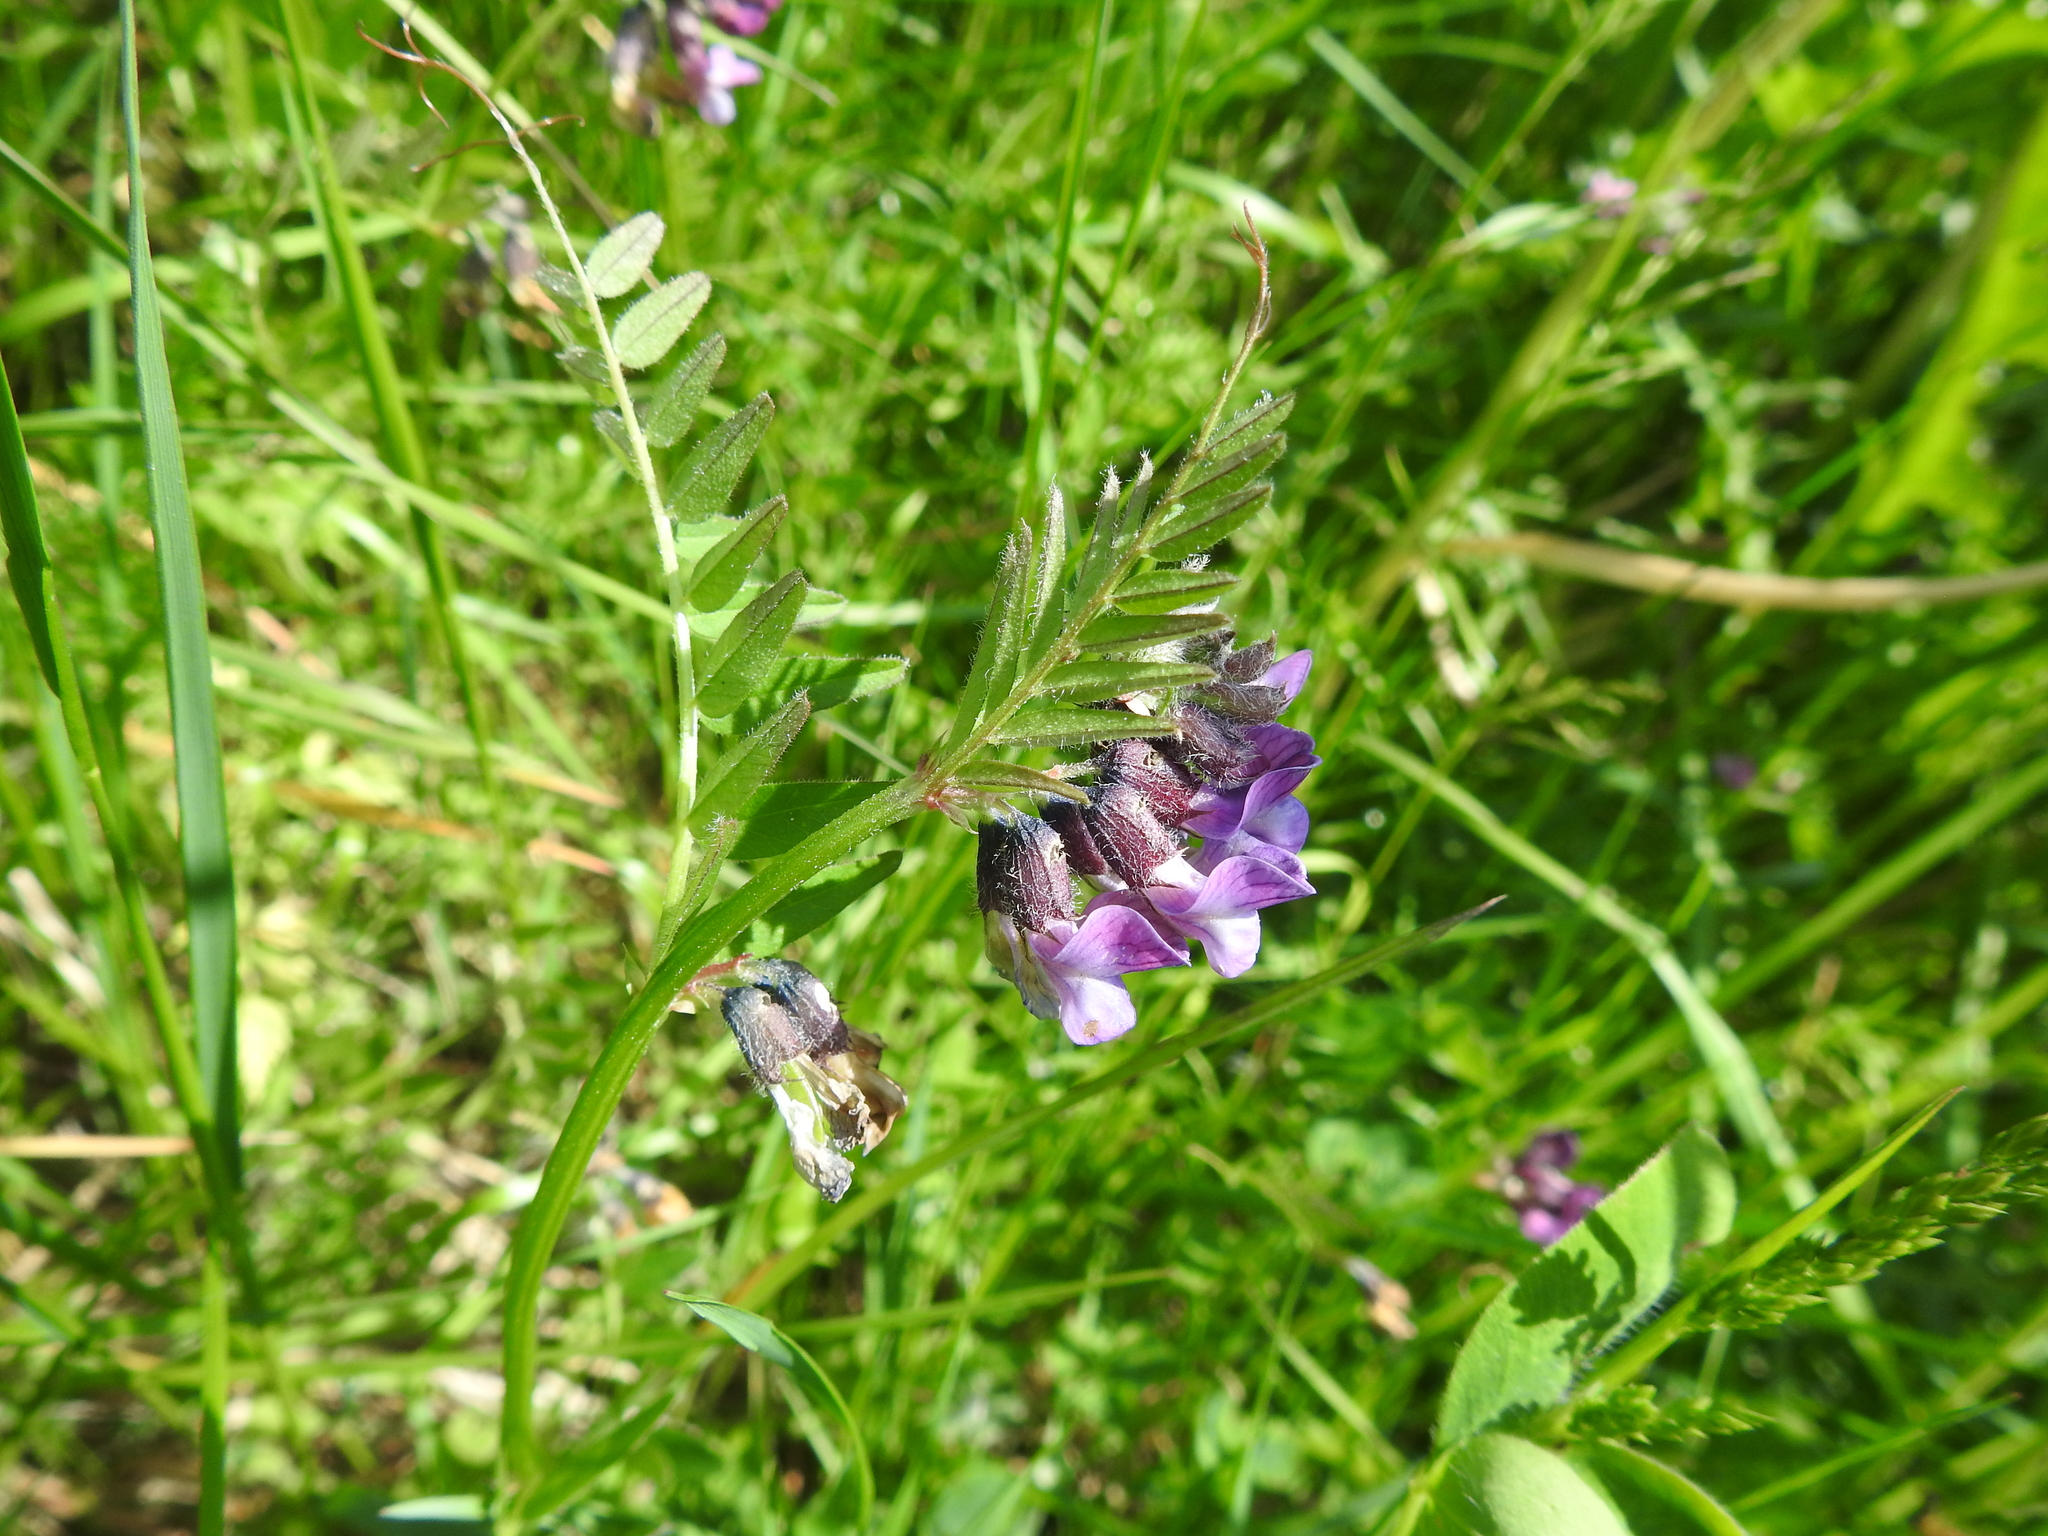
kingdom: Plantae
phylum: Tracheophyta
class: Magnoliopsida
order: Fabales
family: Fabaceae
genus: Vicia
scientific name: Vicia sepium
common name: Bush vetch
